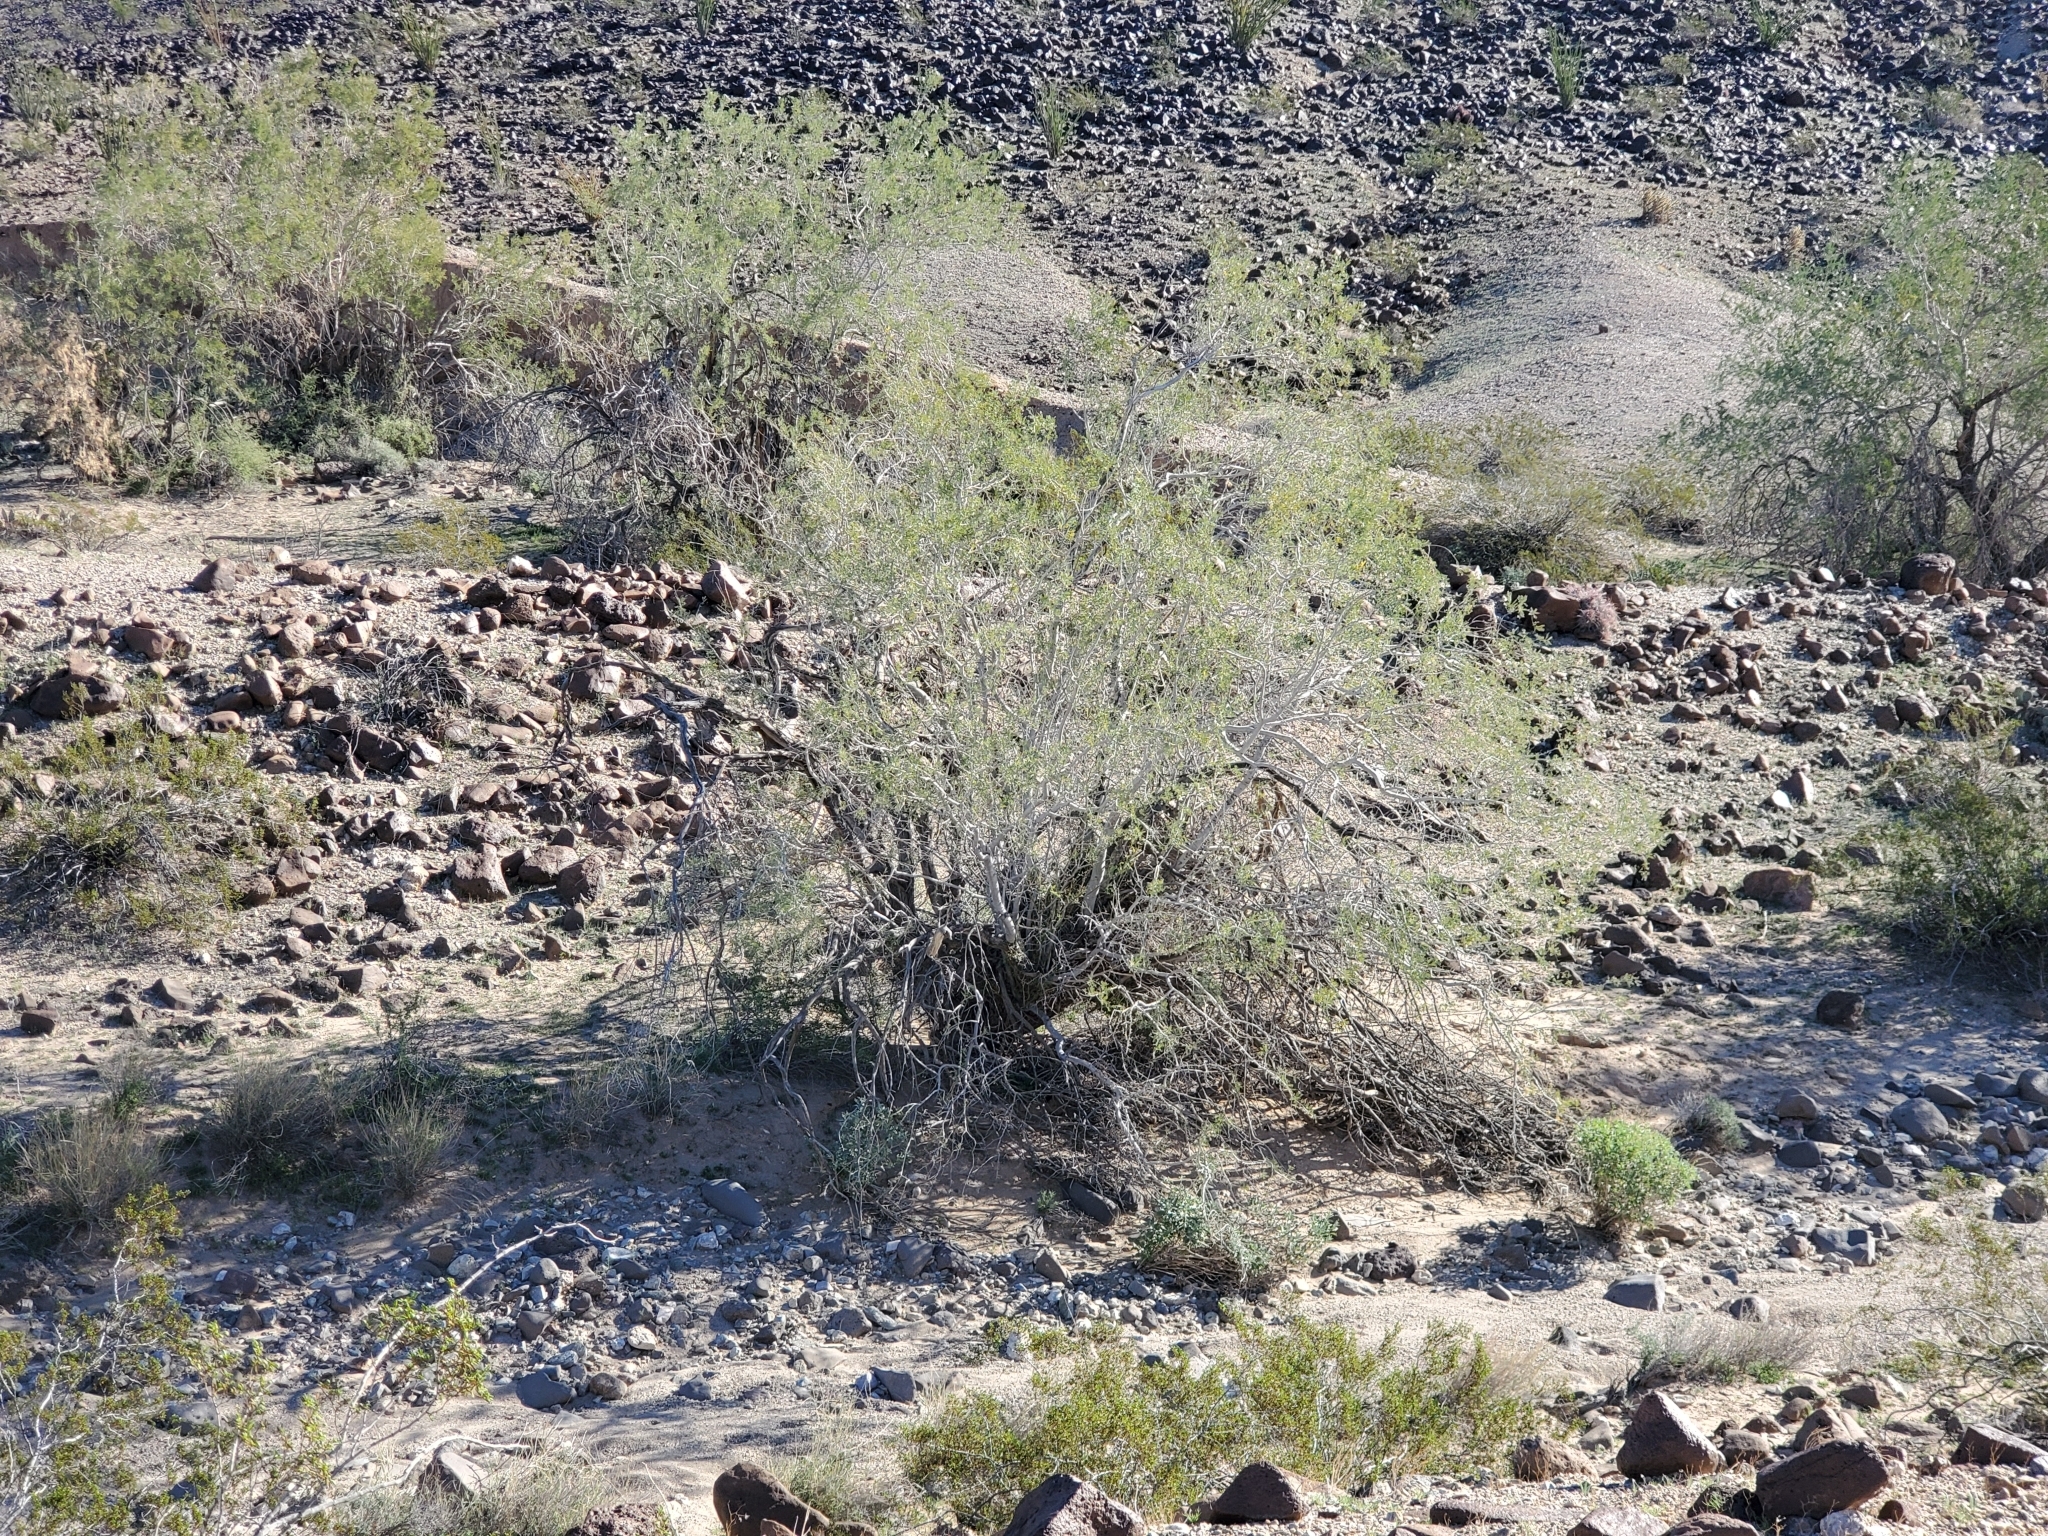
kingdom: Plantae
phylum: Tracheophyta
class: Magnoliopsida
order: Fabales
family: Fabaceae
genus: Olneya
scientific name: Olneya tesota
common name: Desert ironwood
